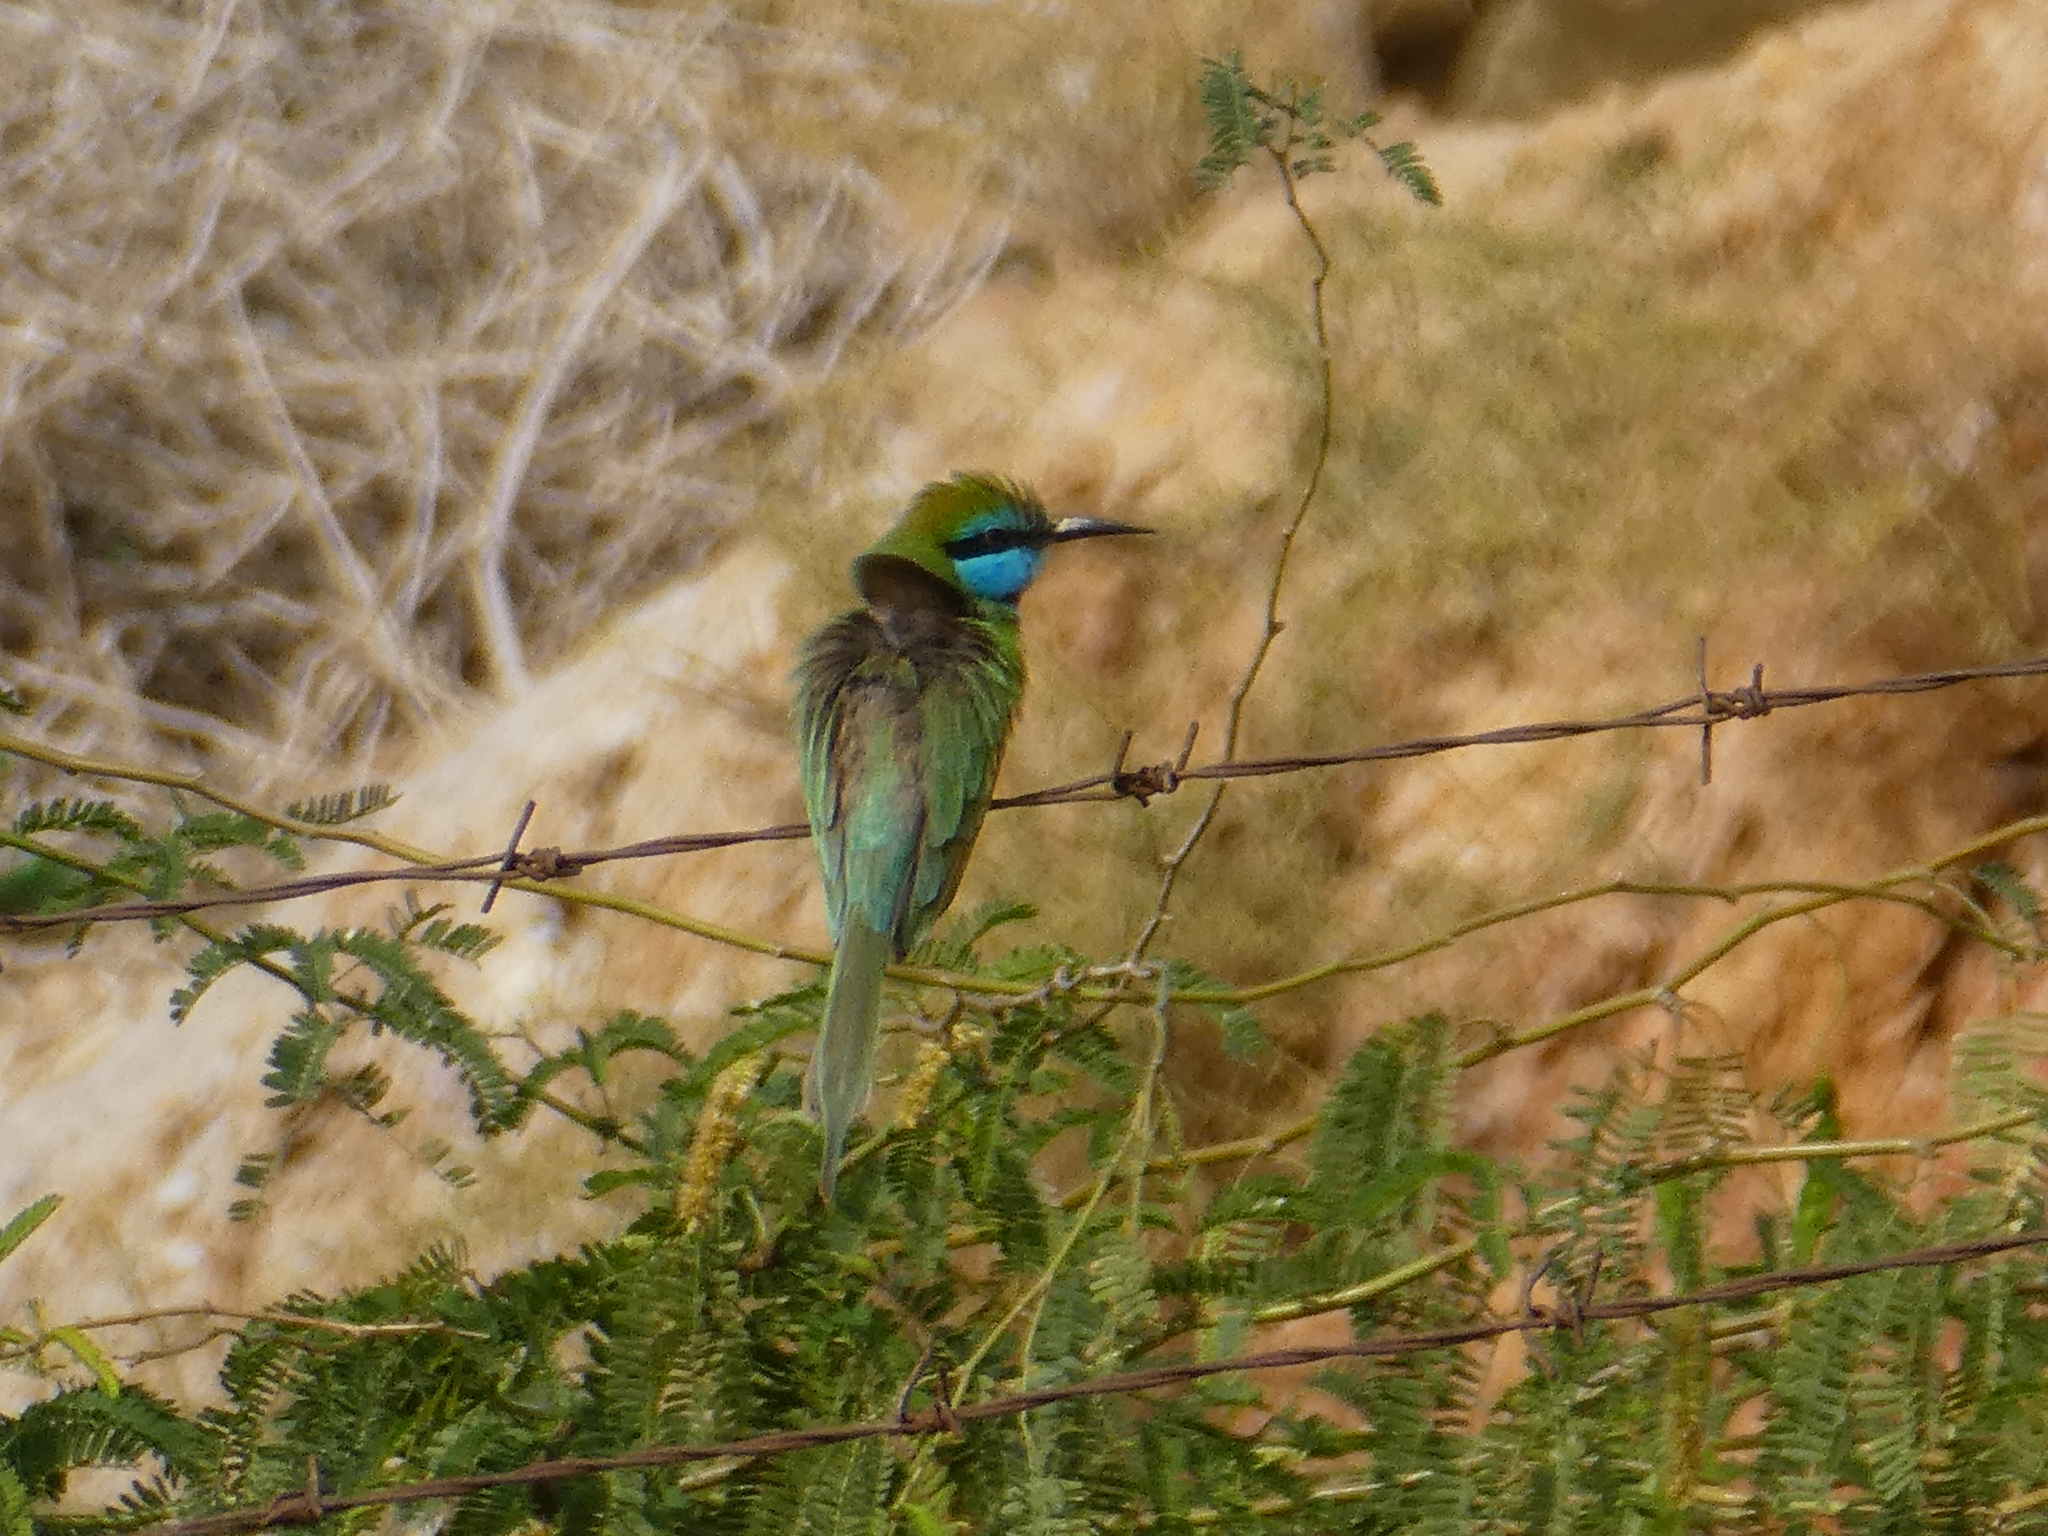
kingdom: Animalia
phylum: Chordata
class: Aves
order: Coraciiformes
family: Meropidae
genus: Merops
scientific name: Merops cyanophrys
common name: Arabian green bee-eater
